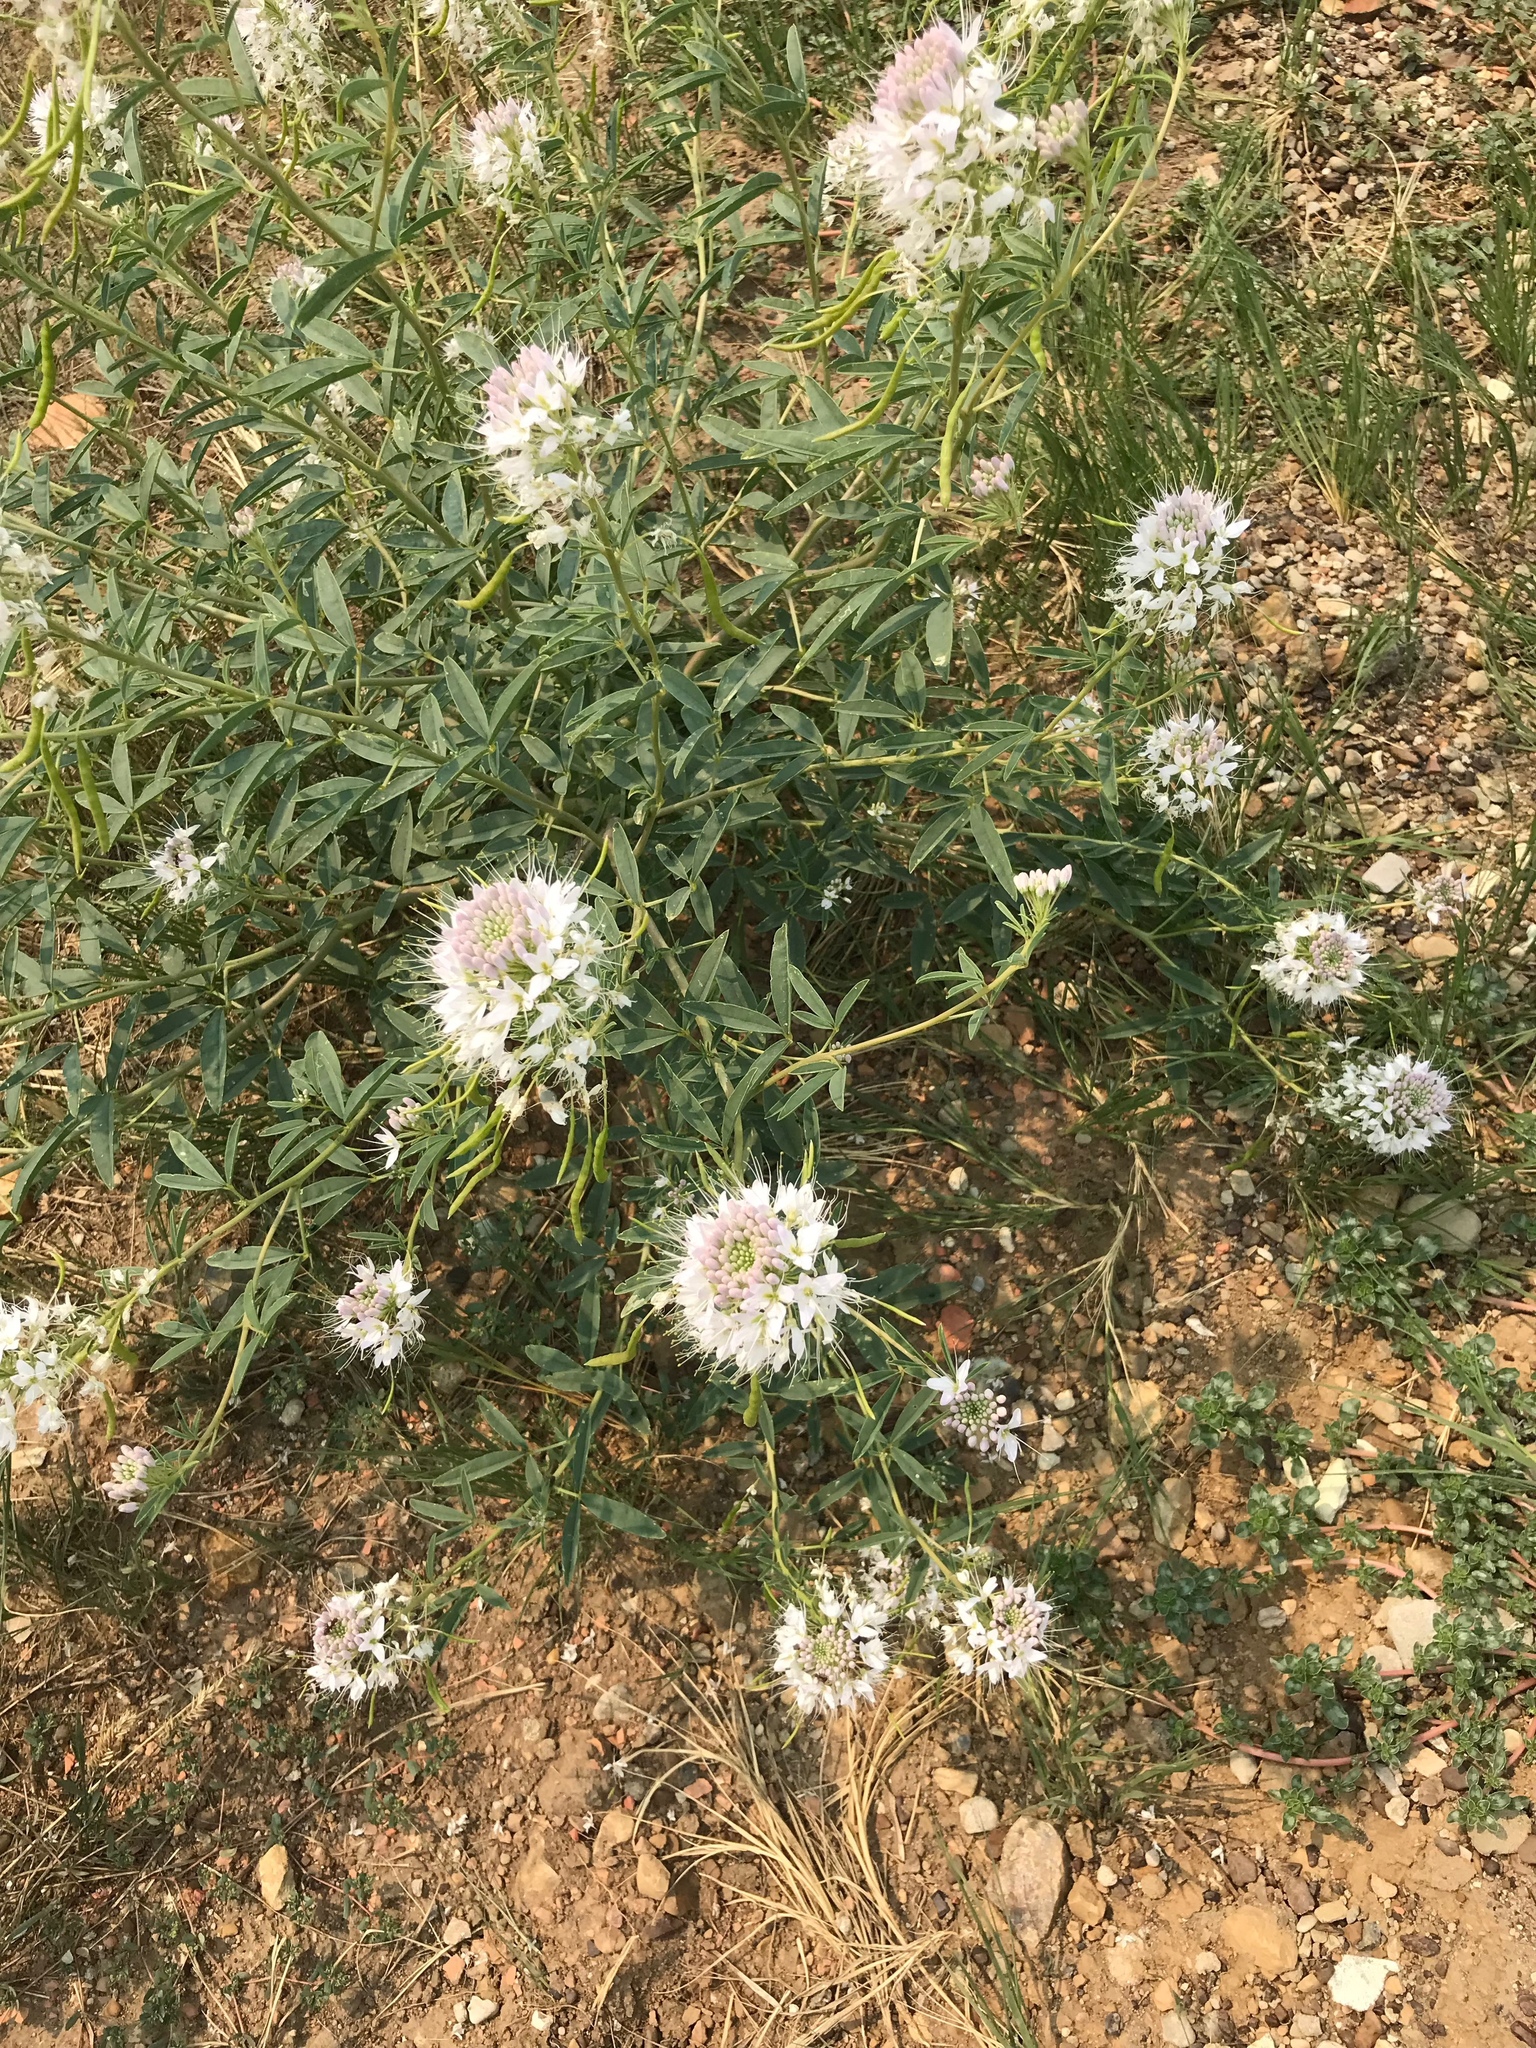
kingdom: Plantae
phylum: Tracheophyta
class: Magnoliopsida
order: Brassicales
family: Cleomaceae
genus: Cleomella
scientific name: Cleomella serrulata
